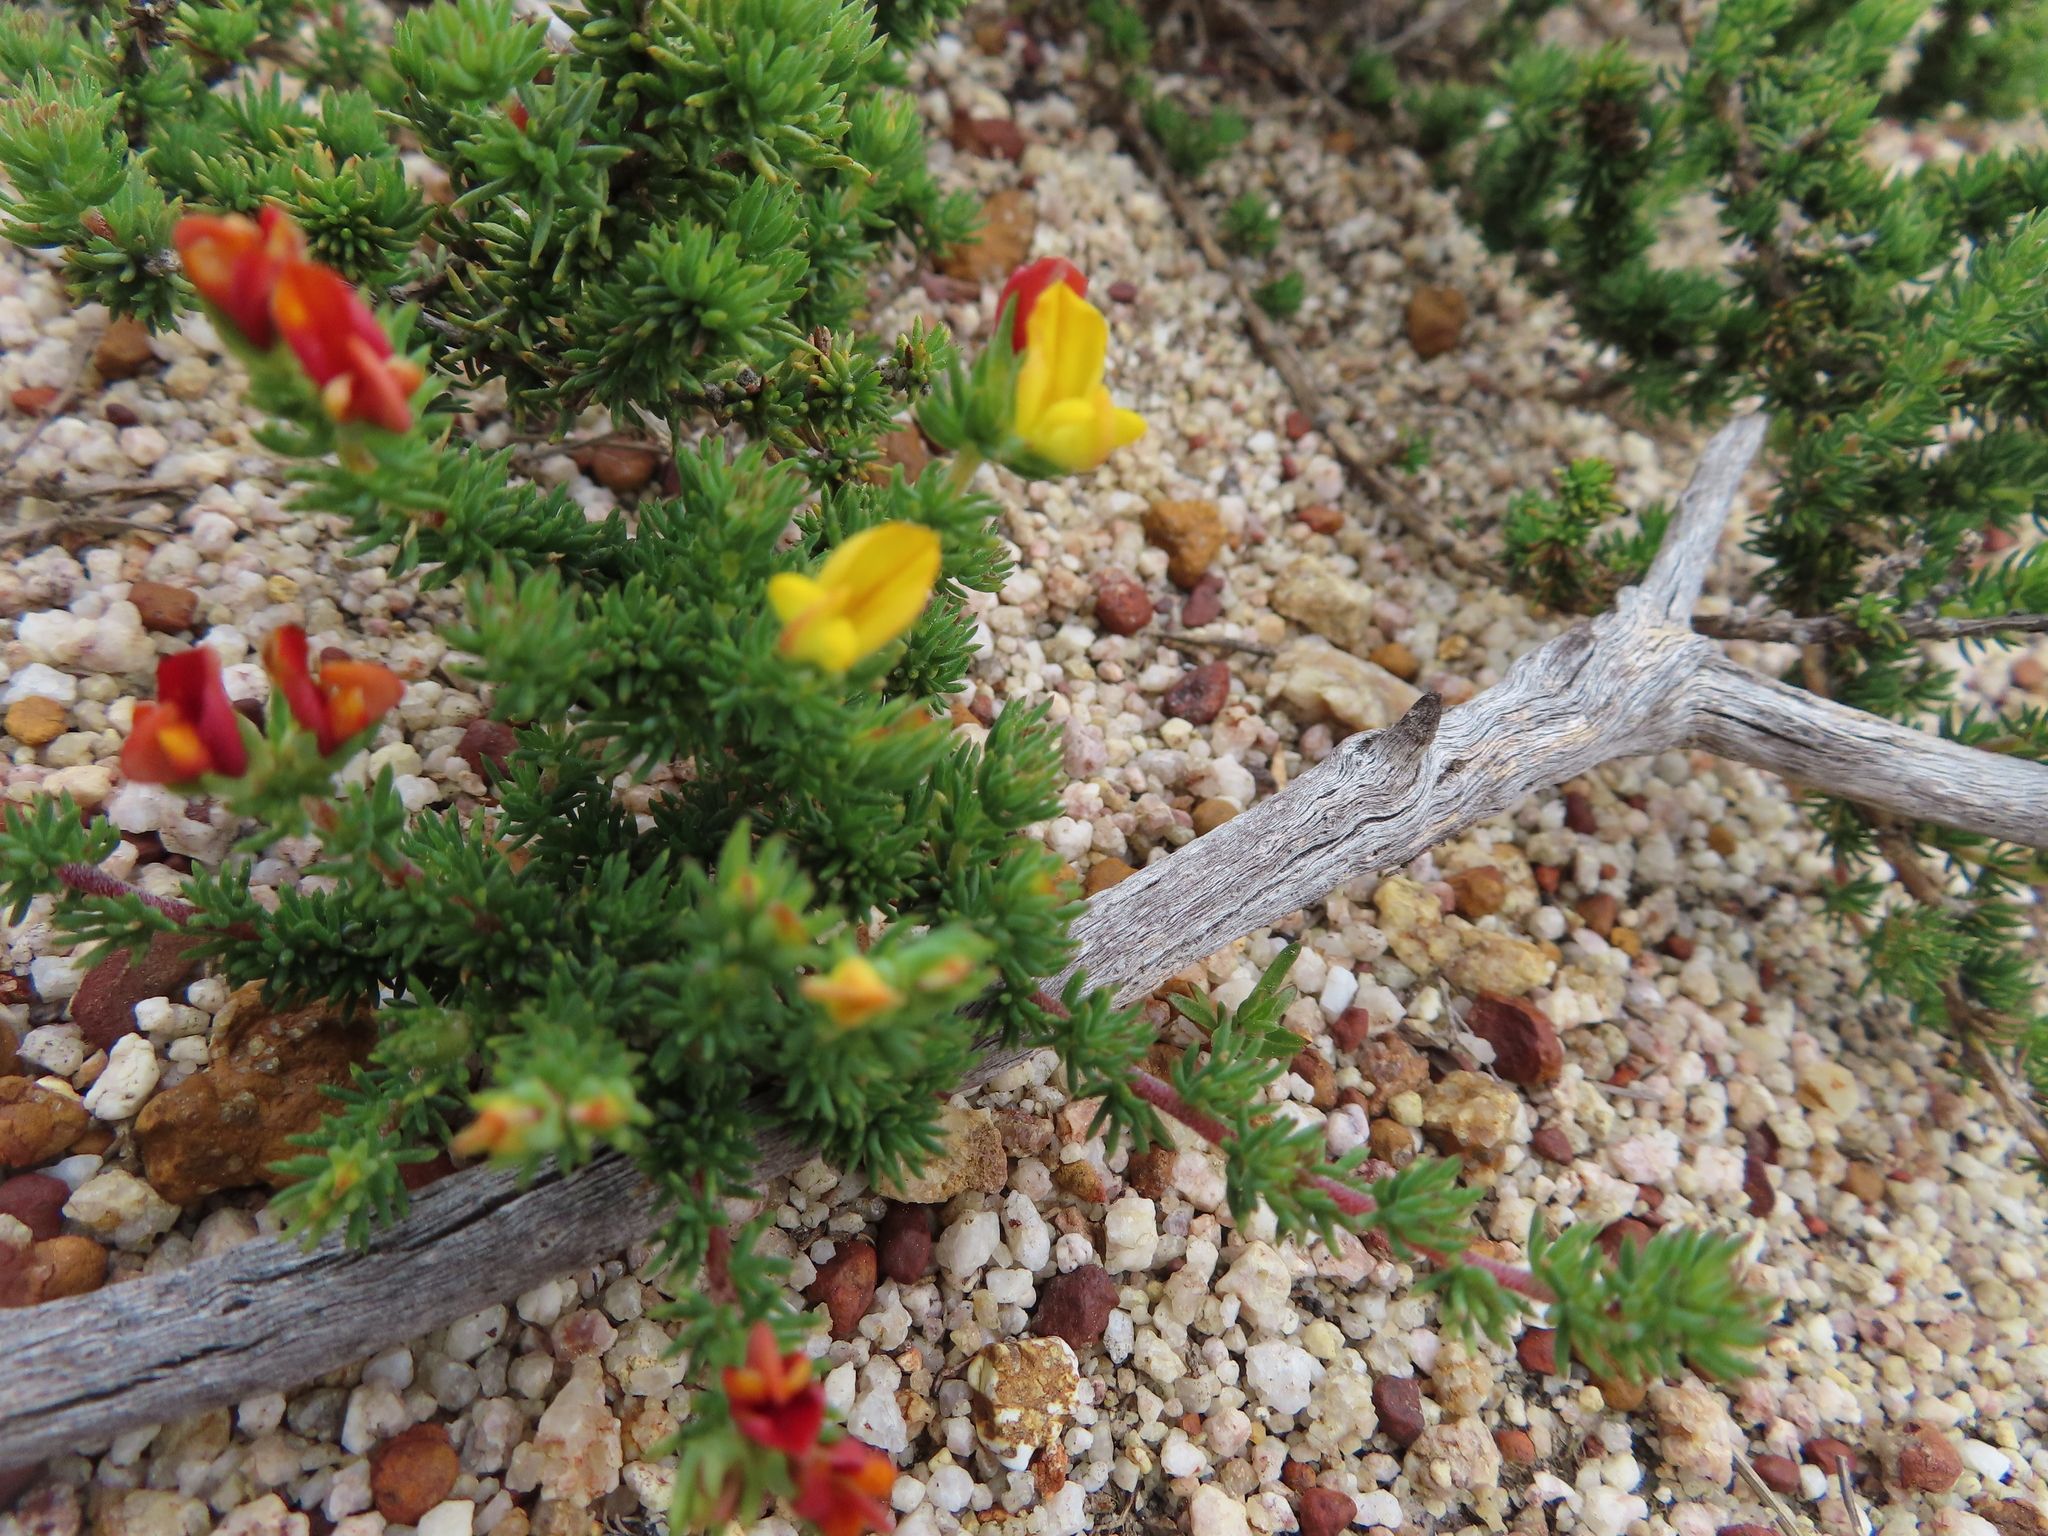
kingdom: Plantae
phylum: Tracheophyta
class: Magnoliopsida
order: Fabales
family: Fabaceae
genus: Aspalathus
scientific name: Aspalathus juniperina
